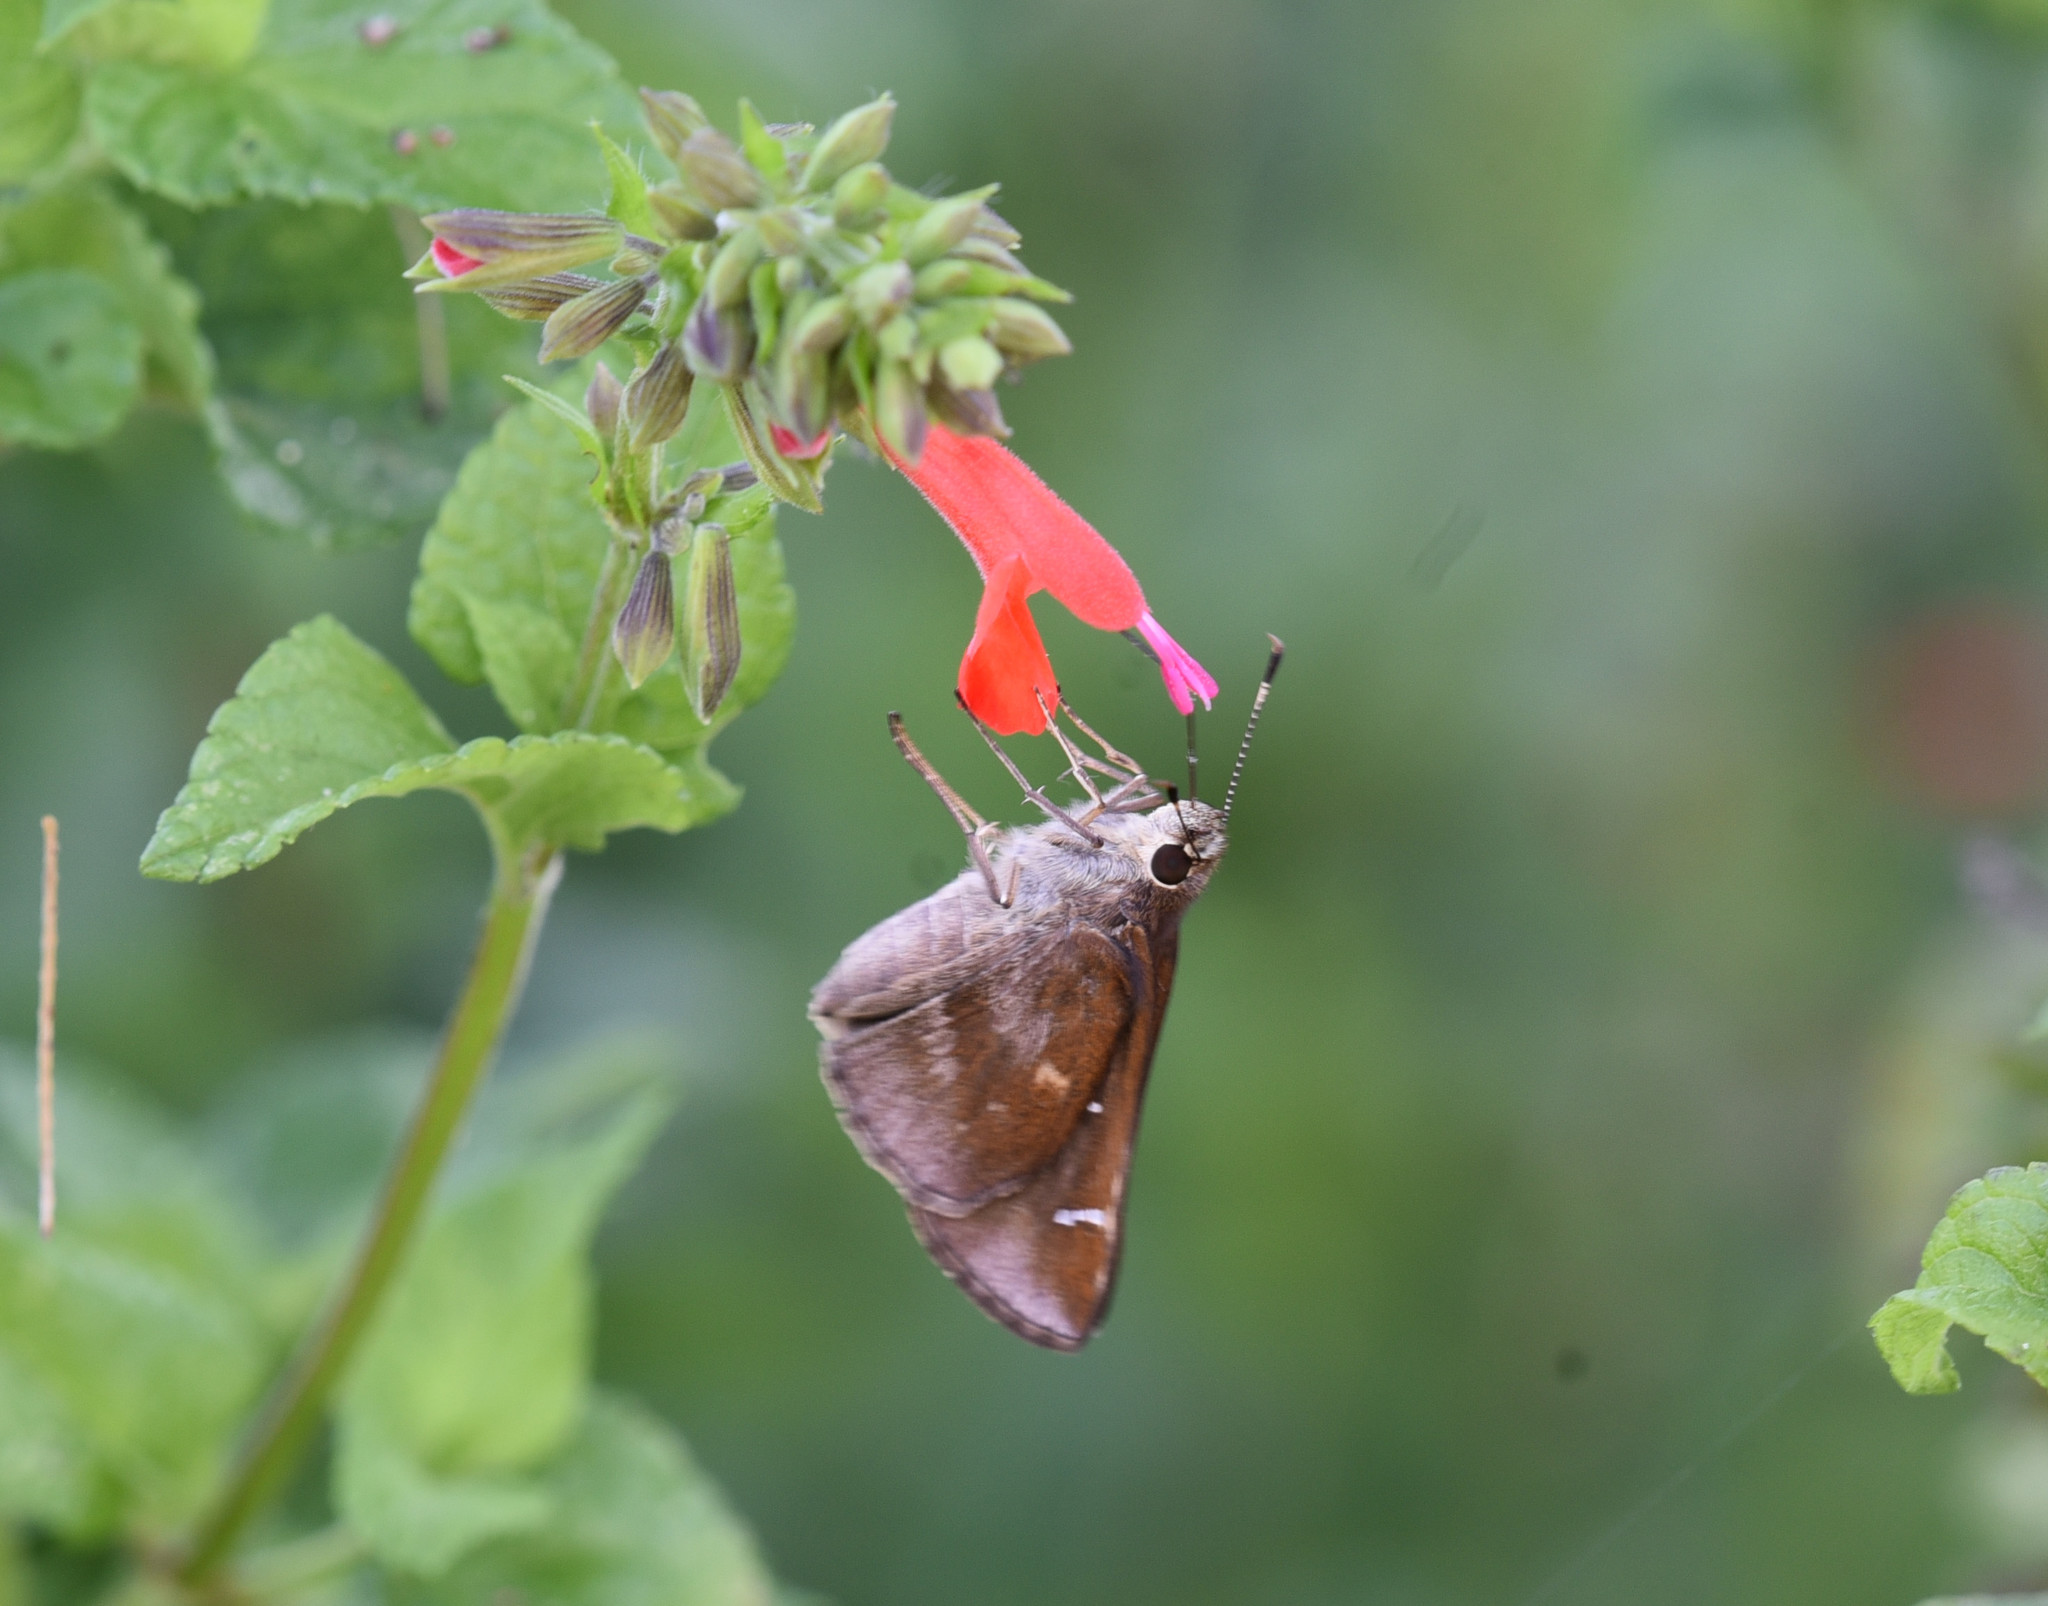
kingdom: Animalia
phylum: Arthropoda
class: Insecta
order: Lepidoptera
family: Hesperiidae
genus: Lerema
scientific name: Lerema accius
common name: Clouded skipper
